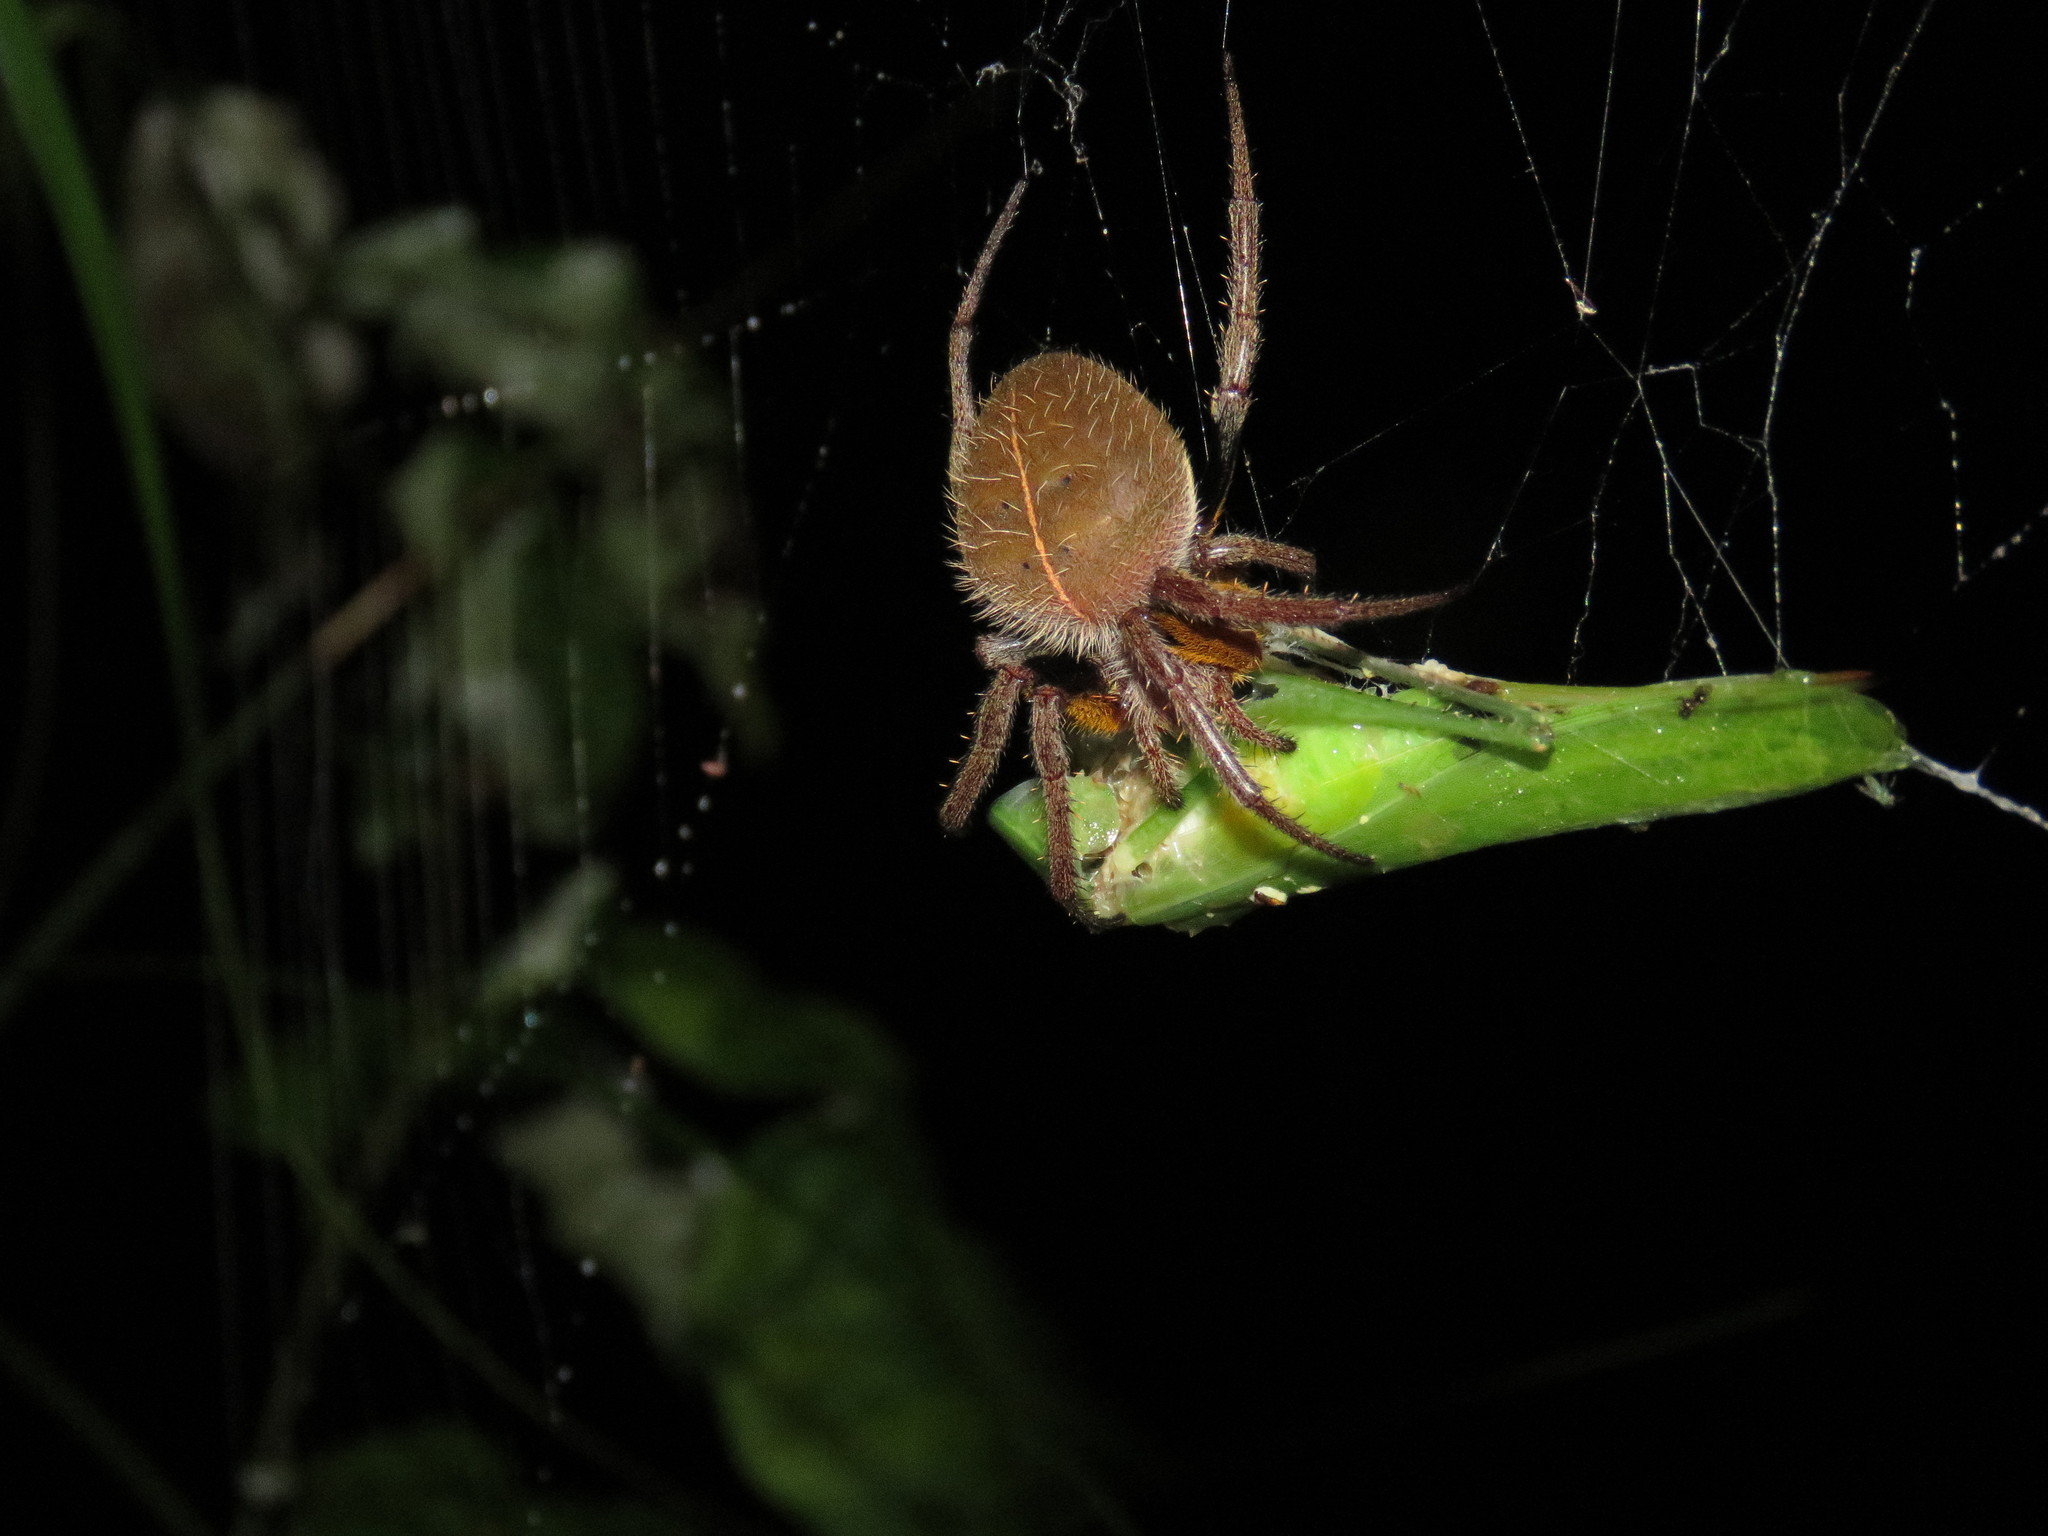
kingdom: Animalia
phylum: Arthropoda
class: Arachnida
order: Araneae
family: Araneidae
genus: Eriophora
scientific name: Eriophora fuliginea
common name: Orb weavers
